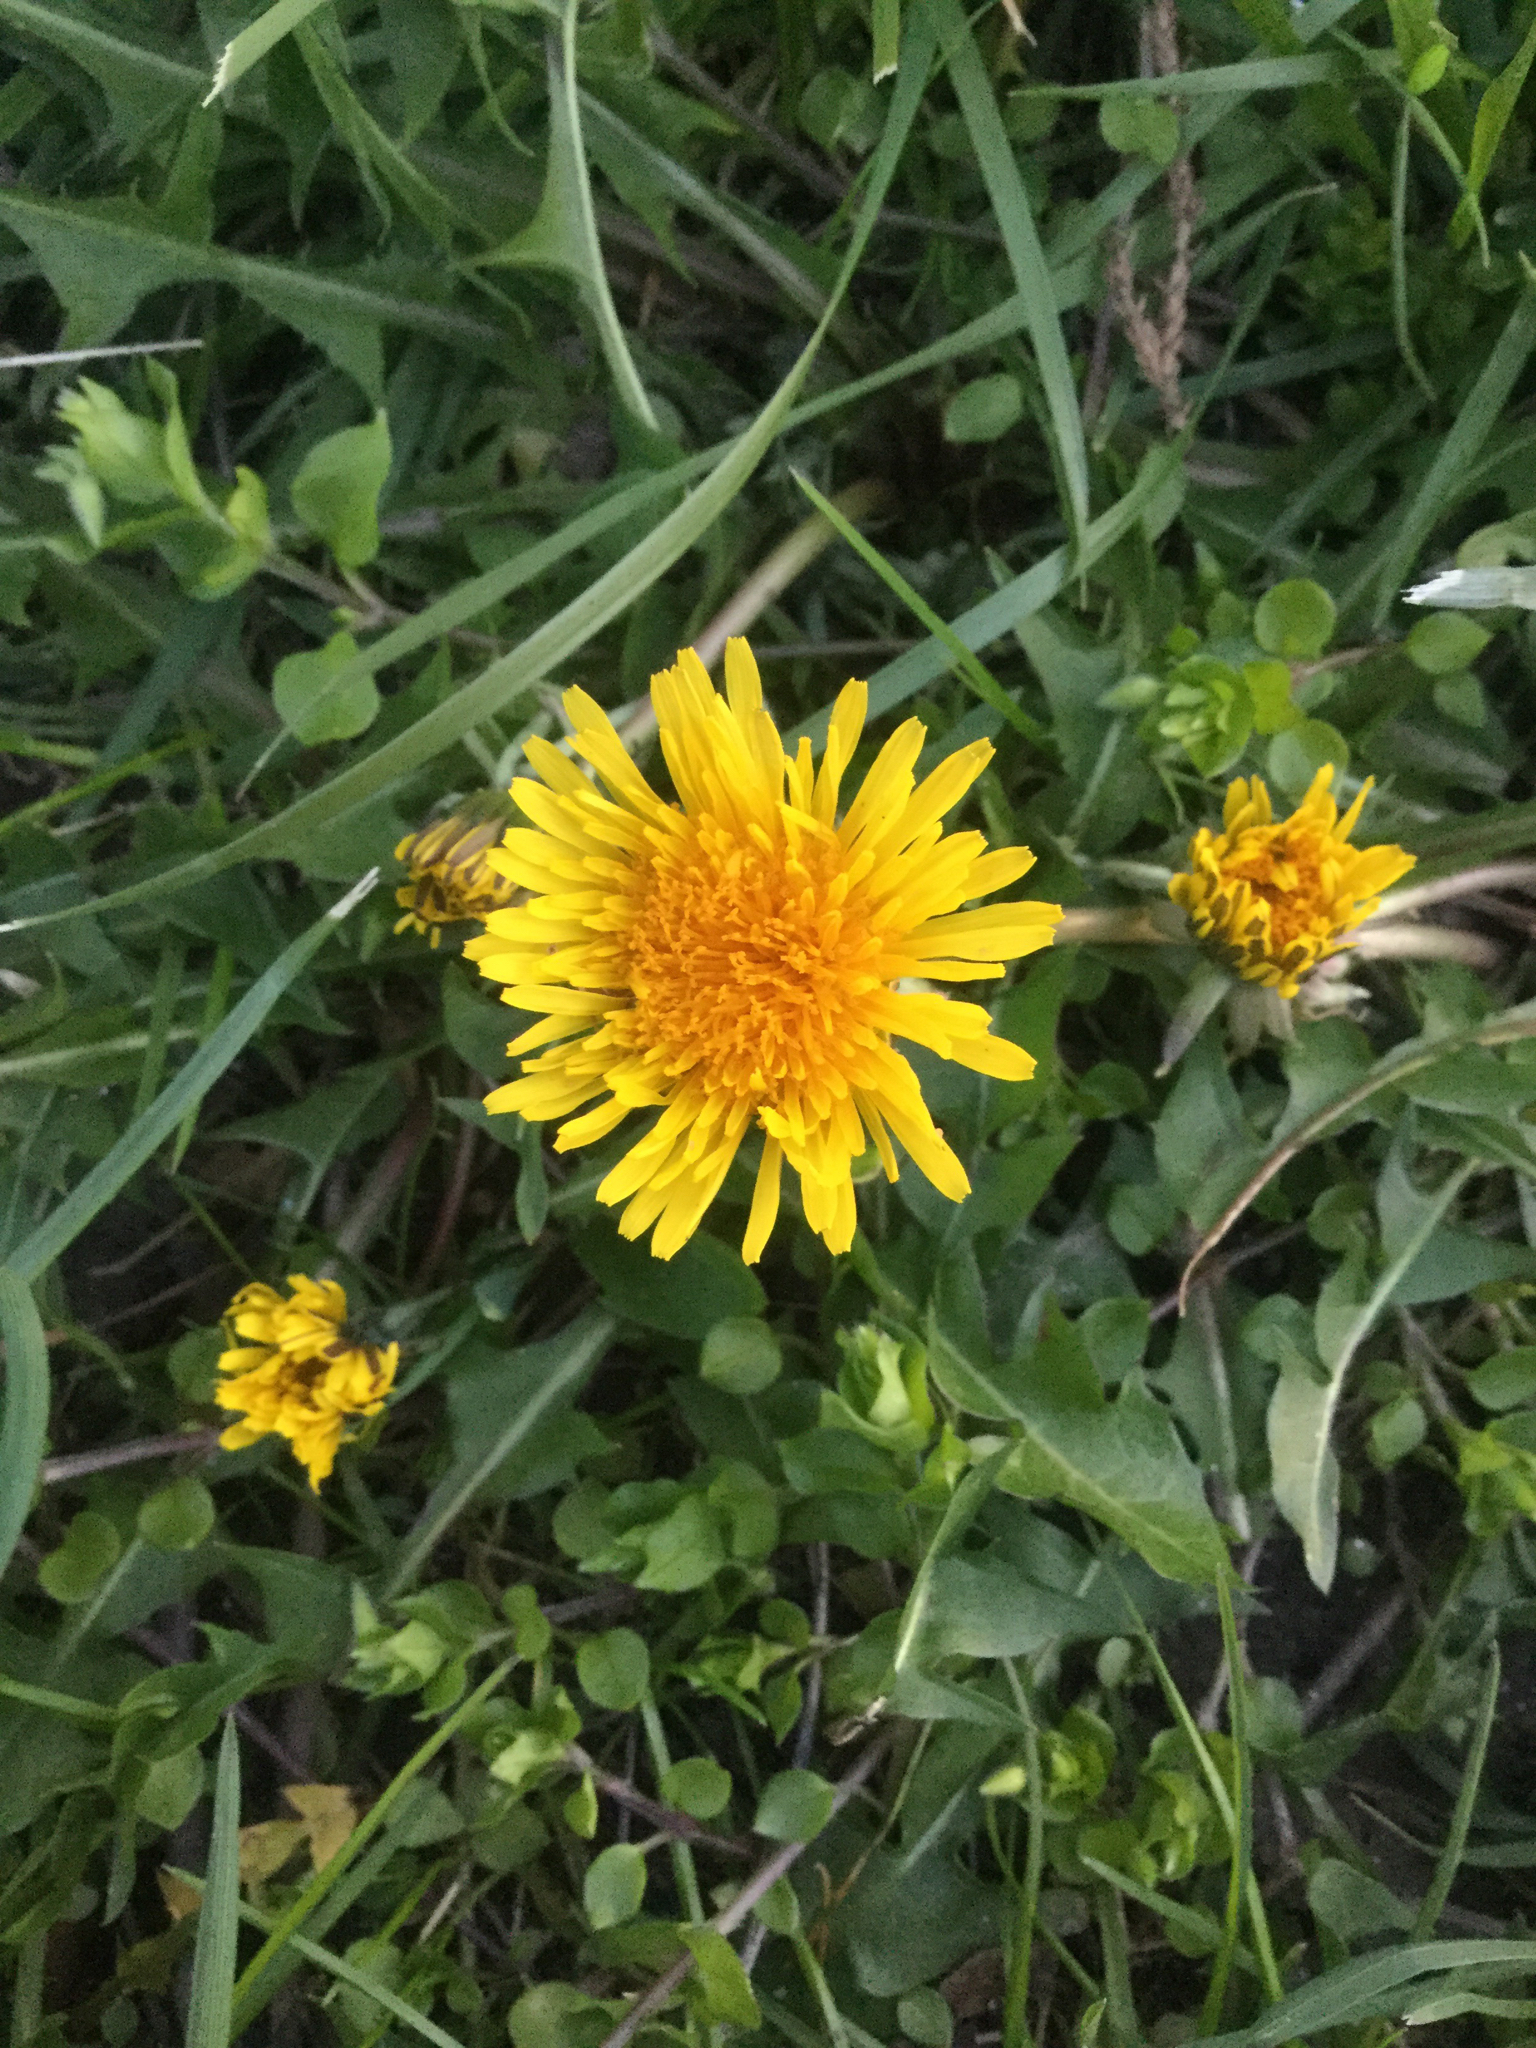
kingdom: Plantae
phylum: Tracheophyta
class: Magnoliopsida
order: Asterales
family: Asteraceae
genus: Taraxacum
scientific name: Taraxacum officinale
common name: Common dandelion
